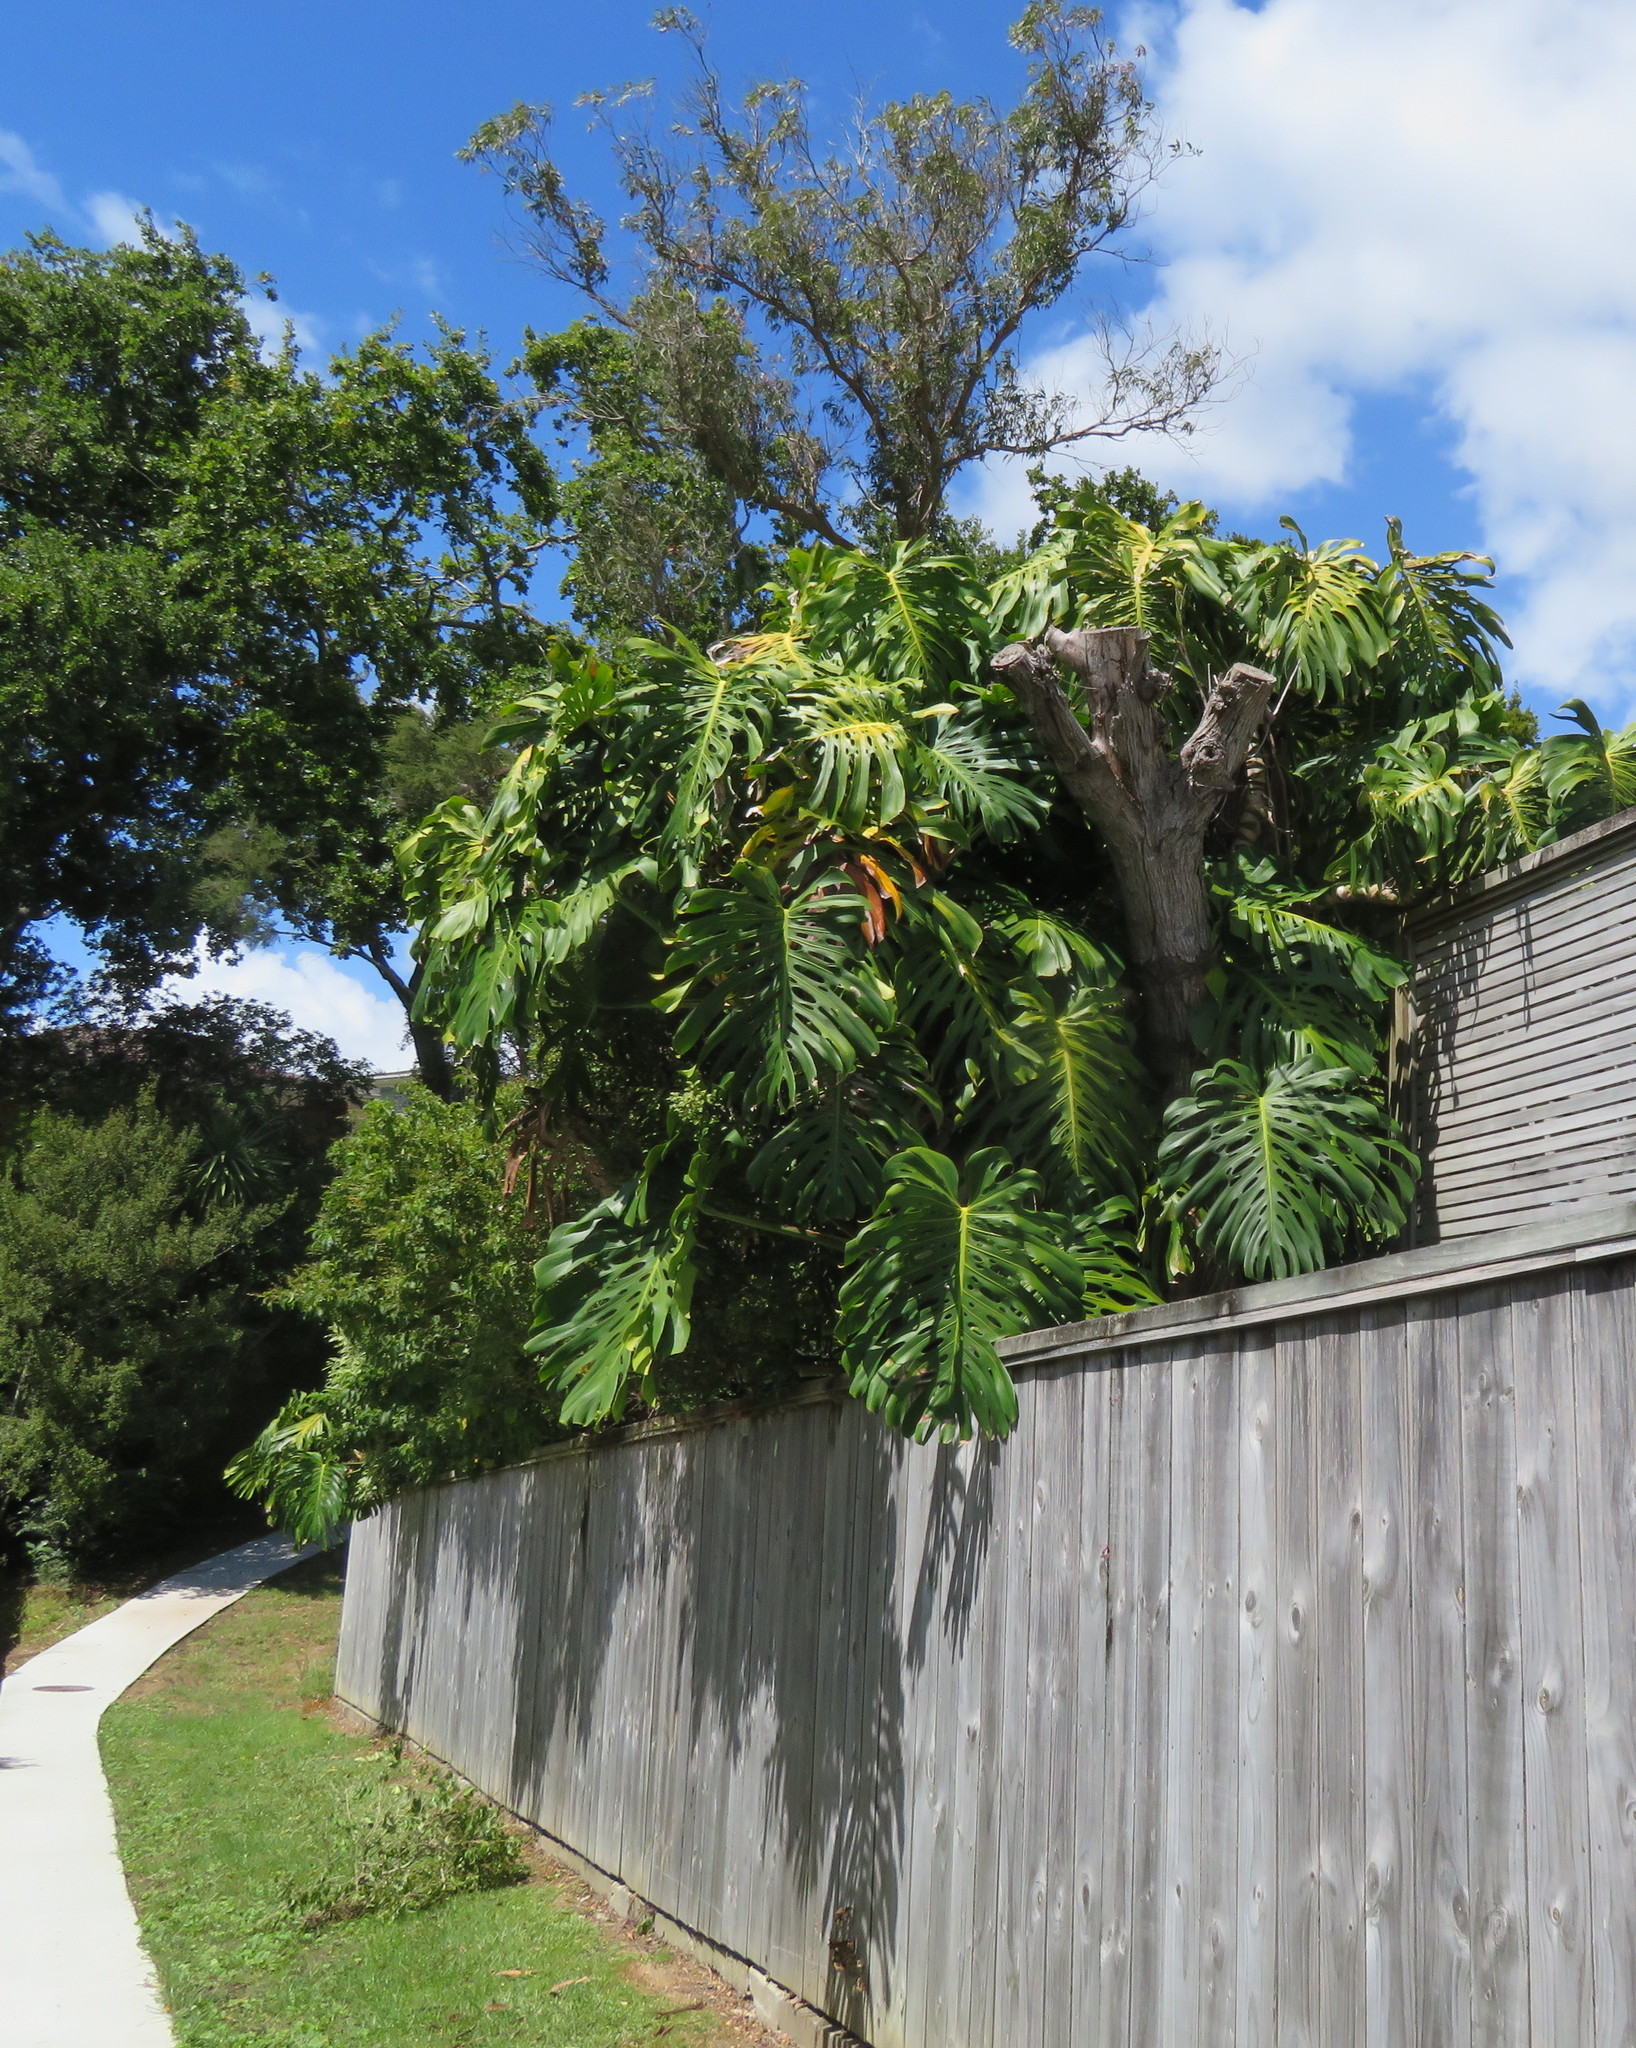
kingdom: Plantae
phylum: Tracheophyta
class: Liliopsida
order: Alismatales
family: Araceae
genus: Monstera
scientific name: Monstera deliciosa
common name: Cut-leaf-philodendron
